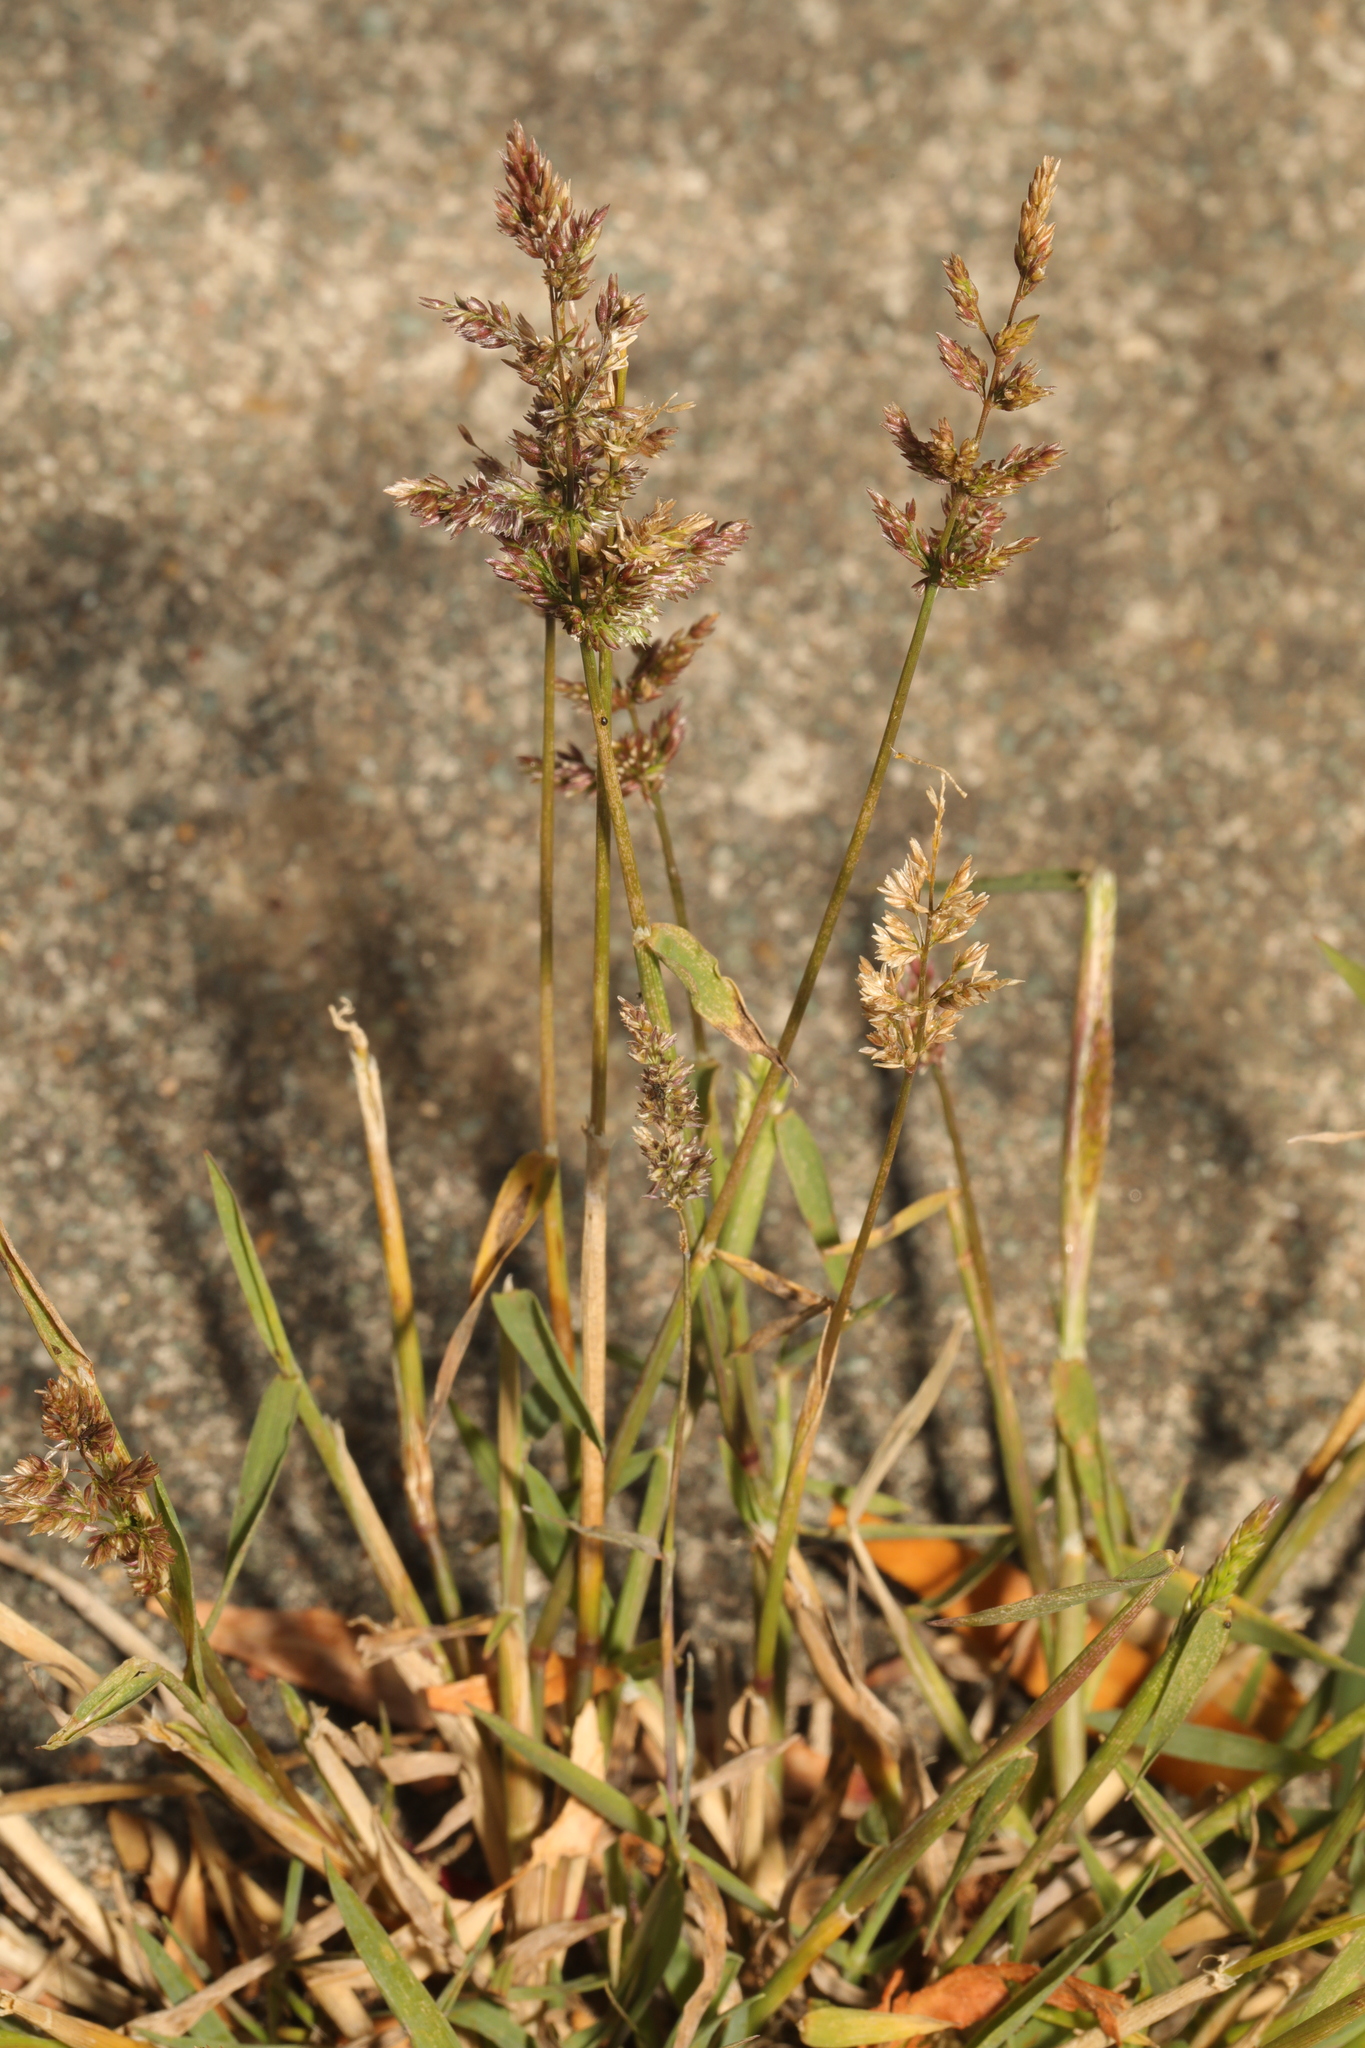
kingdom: Plantae
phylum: Tracheophyta
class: Liliopsida
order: Poales
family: Poaceae
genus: Polypogon
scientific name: Polypogon viridis
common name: Water bent
